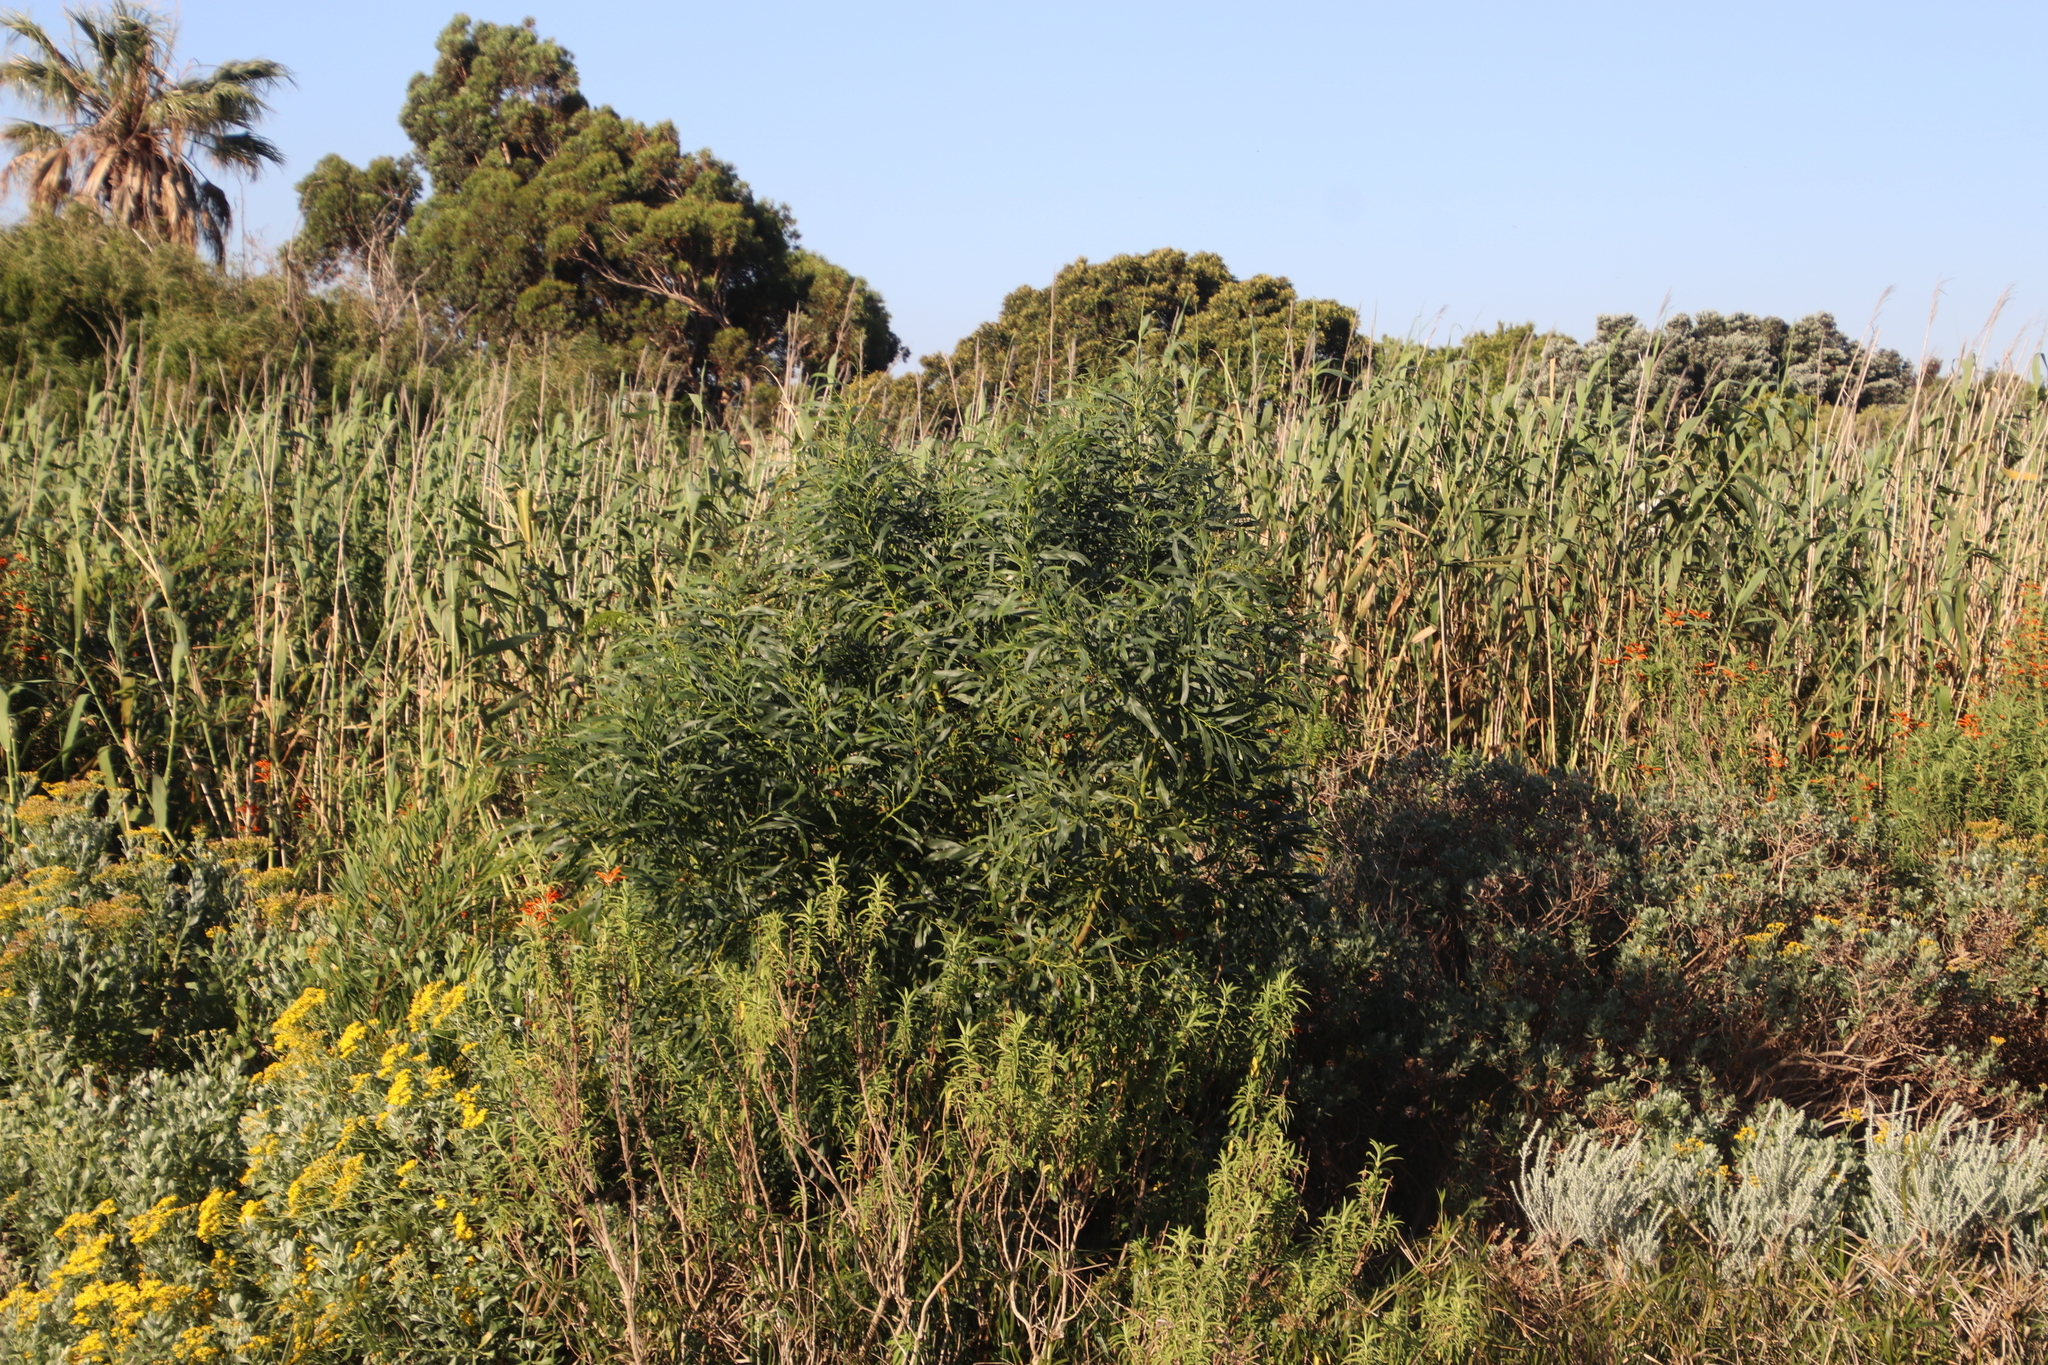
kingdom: Plantae
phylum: Tracheophyta
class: Magnoliopsida
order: Fabales
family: Fabaceae
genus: Acacia
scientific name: Acacia saligna
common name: Orange wattle
